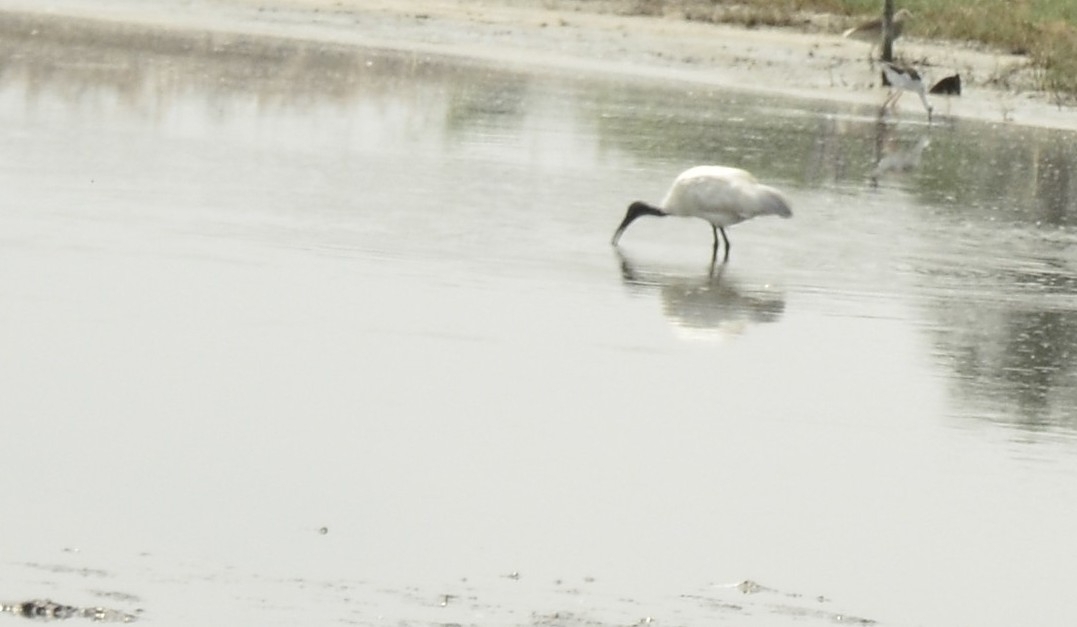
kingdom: Animalia
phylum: Chordata
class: Aves
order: Pelecaniformes
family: Threskiornithidae
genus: Threskiornis
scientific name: Threskiornis melanocephalus
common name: Black-headed ibis
